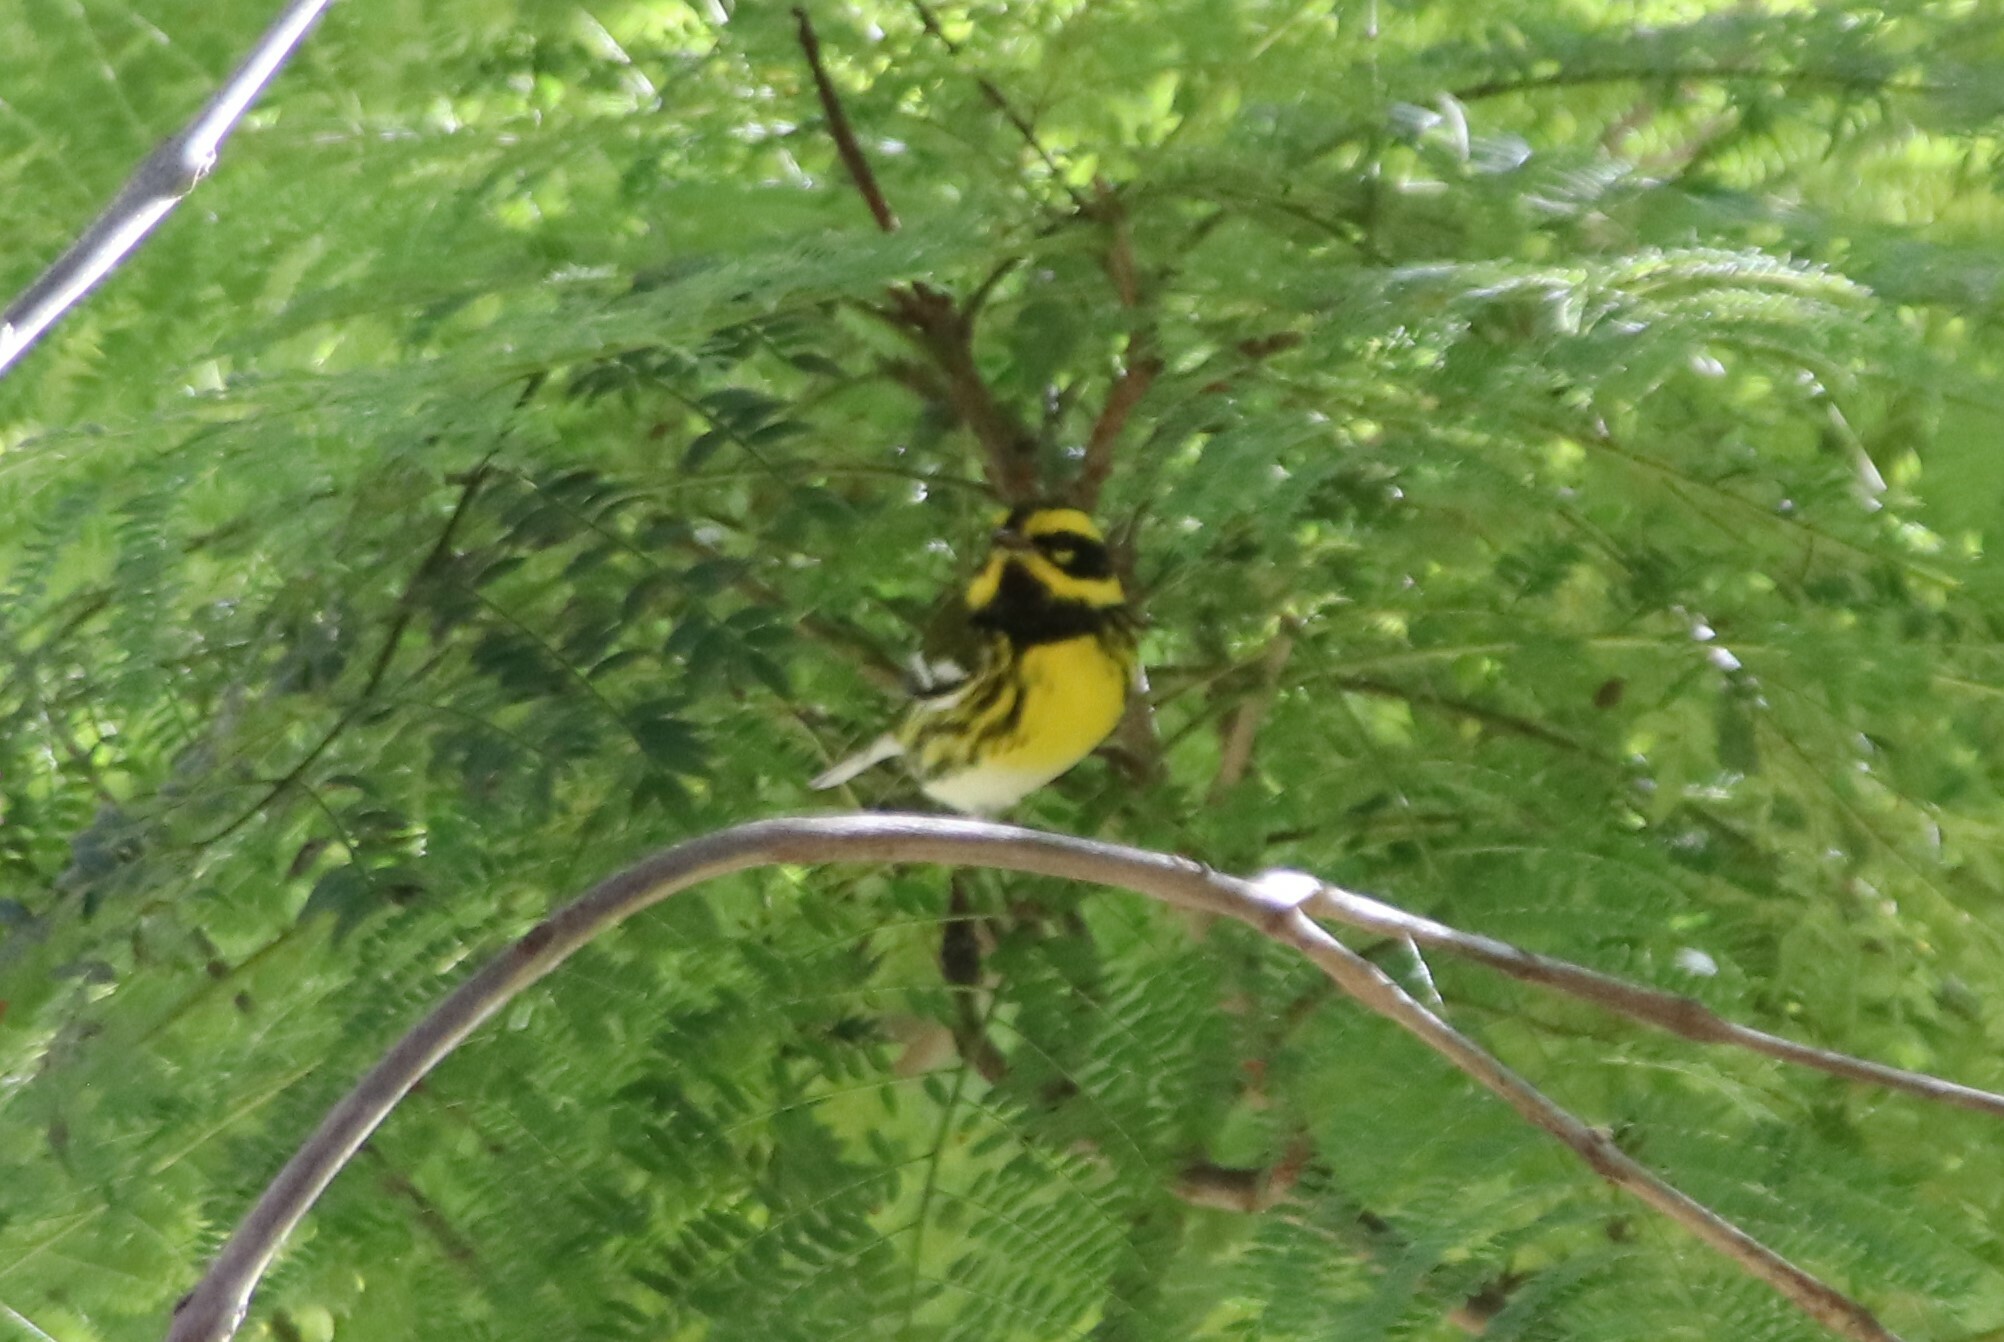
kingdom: Animalia
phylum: Chordata
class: Aves
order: Passeriformes
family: Parulidae
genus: Setophaga
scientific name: Setophaga townsendi
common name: Townsend's warbler
